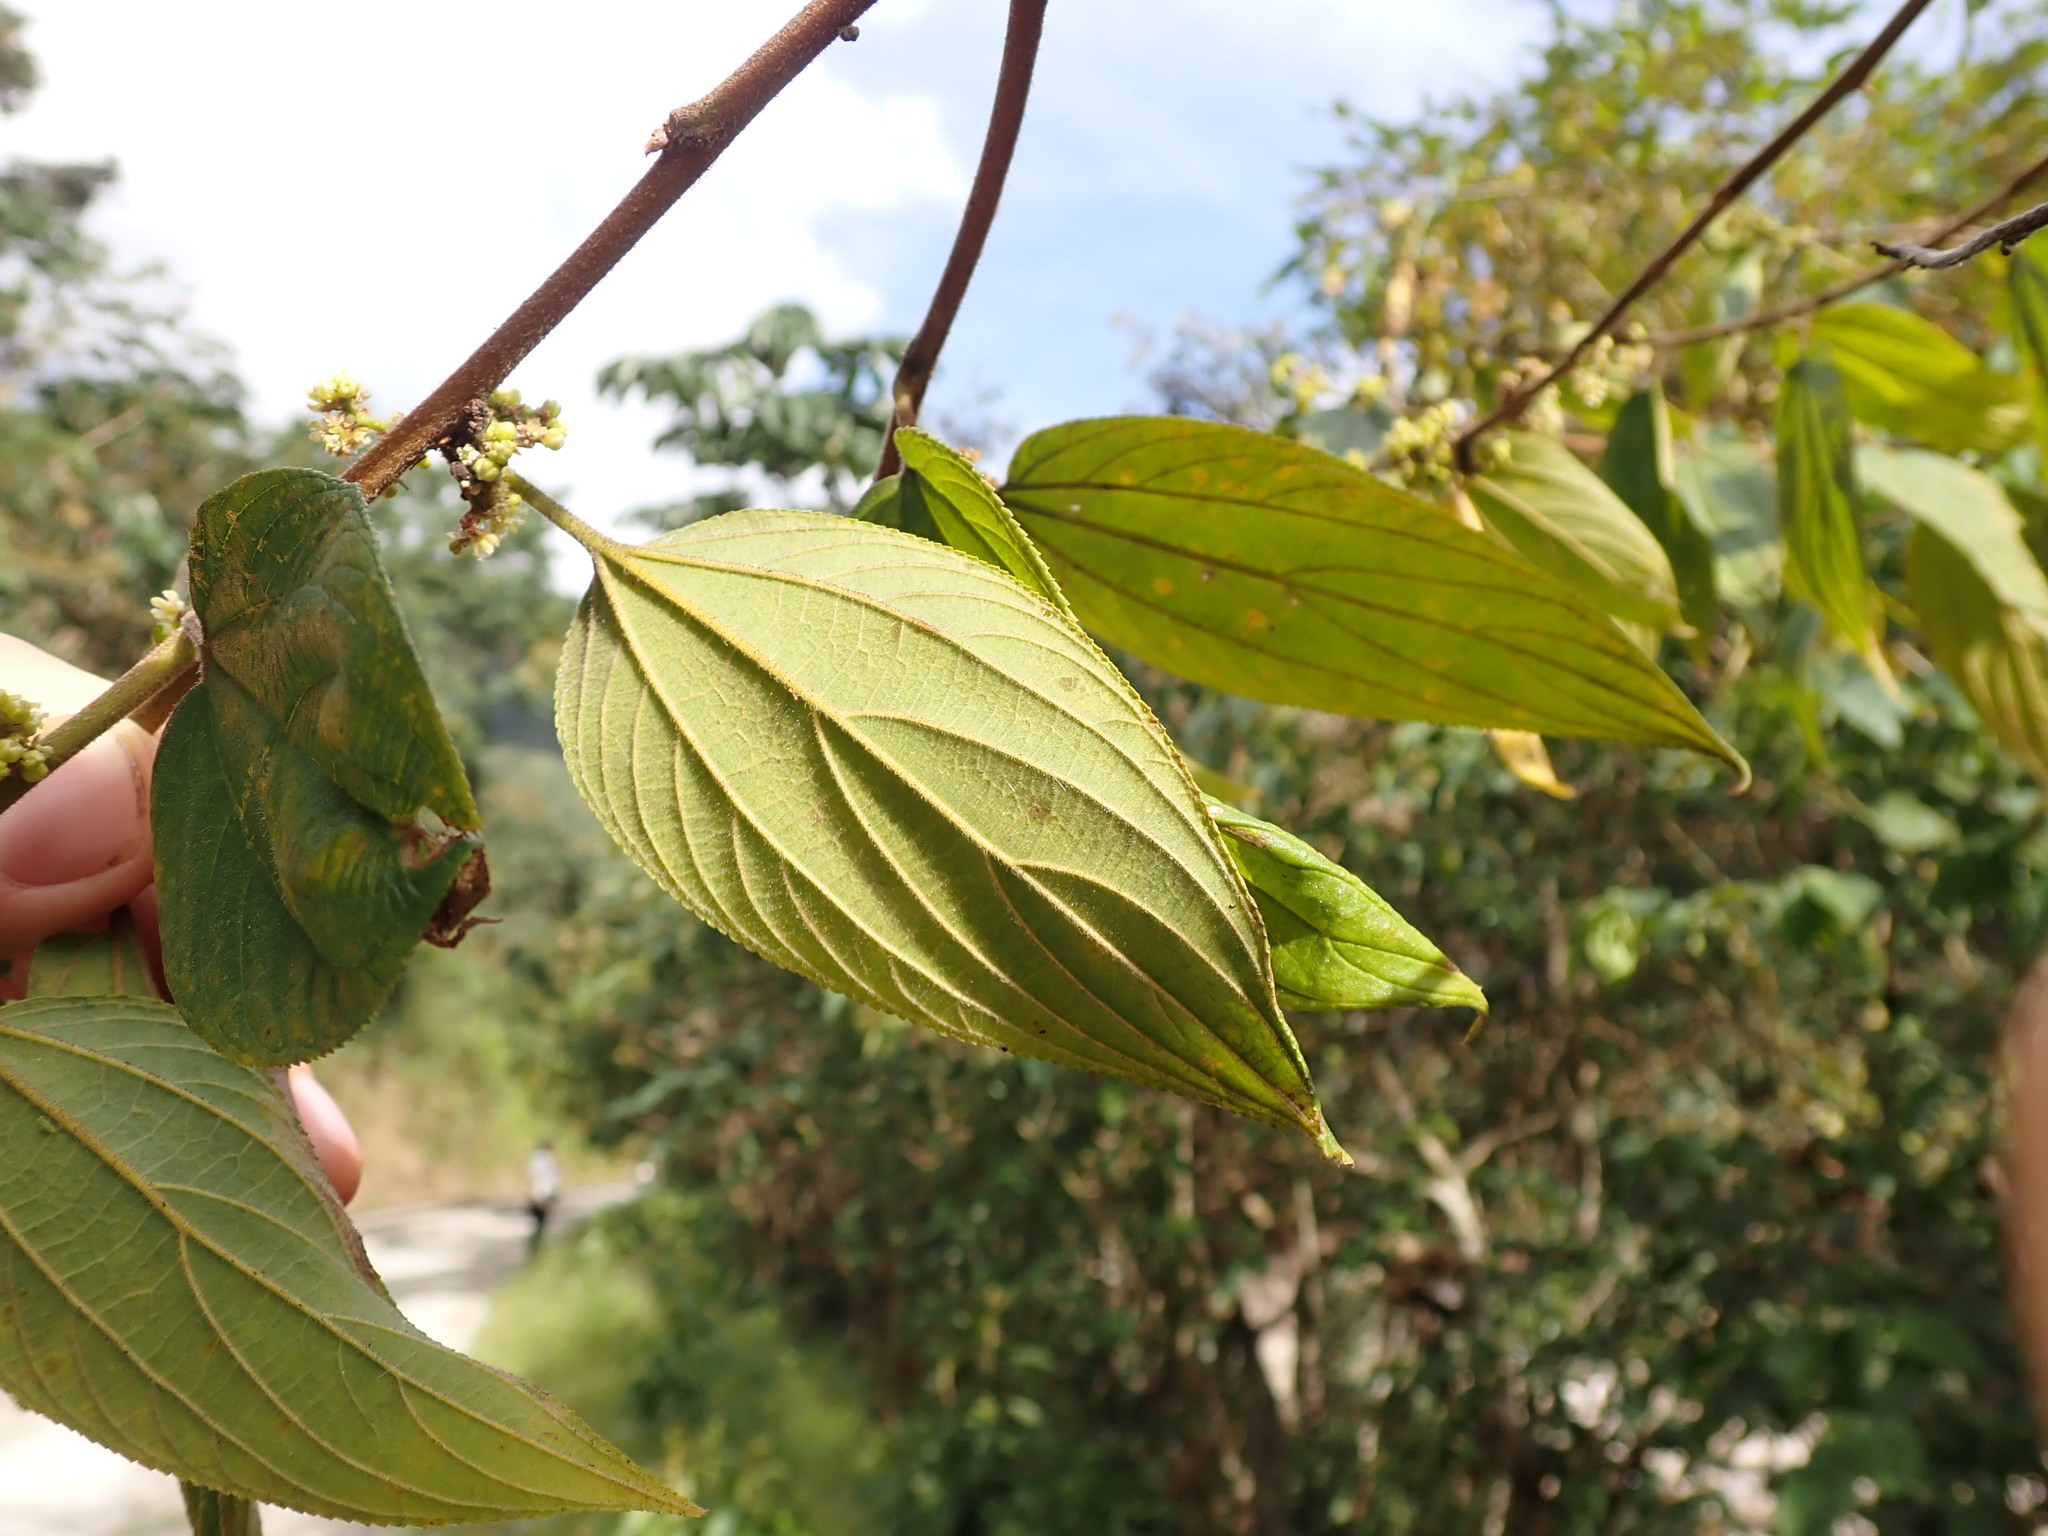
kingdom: Plantae
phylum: Tracheophyta
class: Magnoliopsida
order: Rosales
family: Cannabaceae
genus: Lozanella
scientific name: Lozanella permollis
